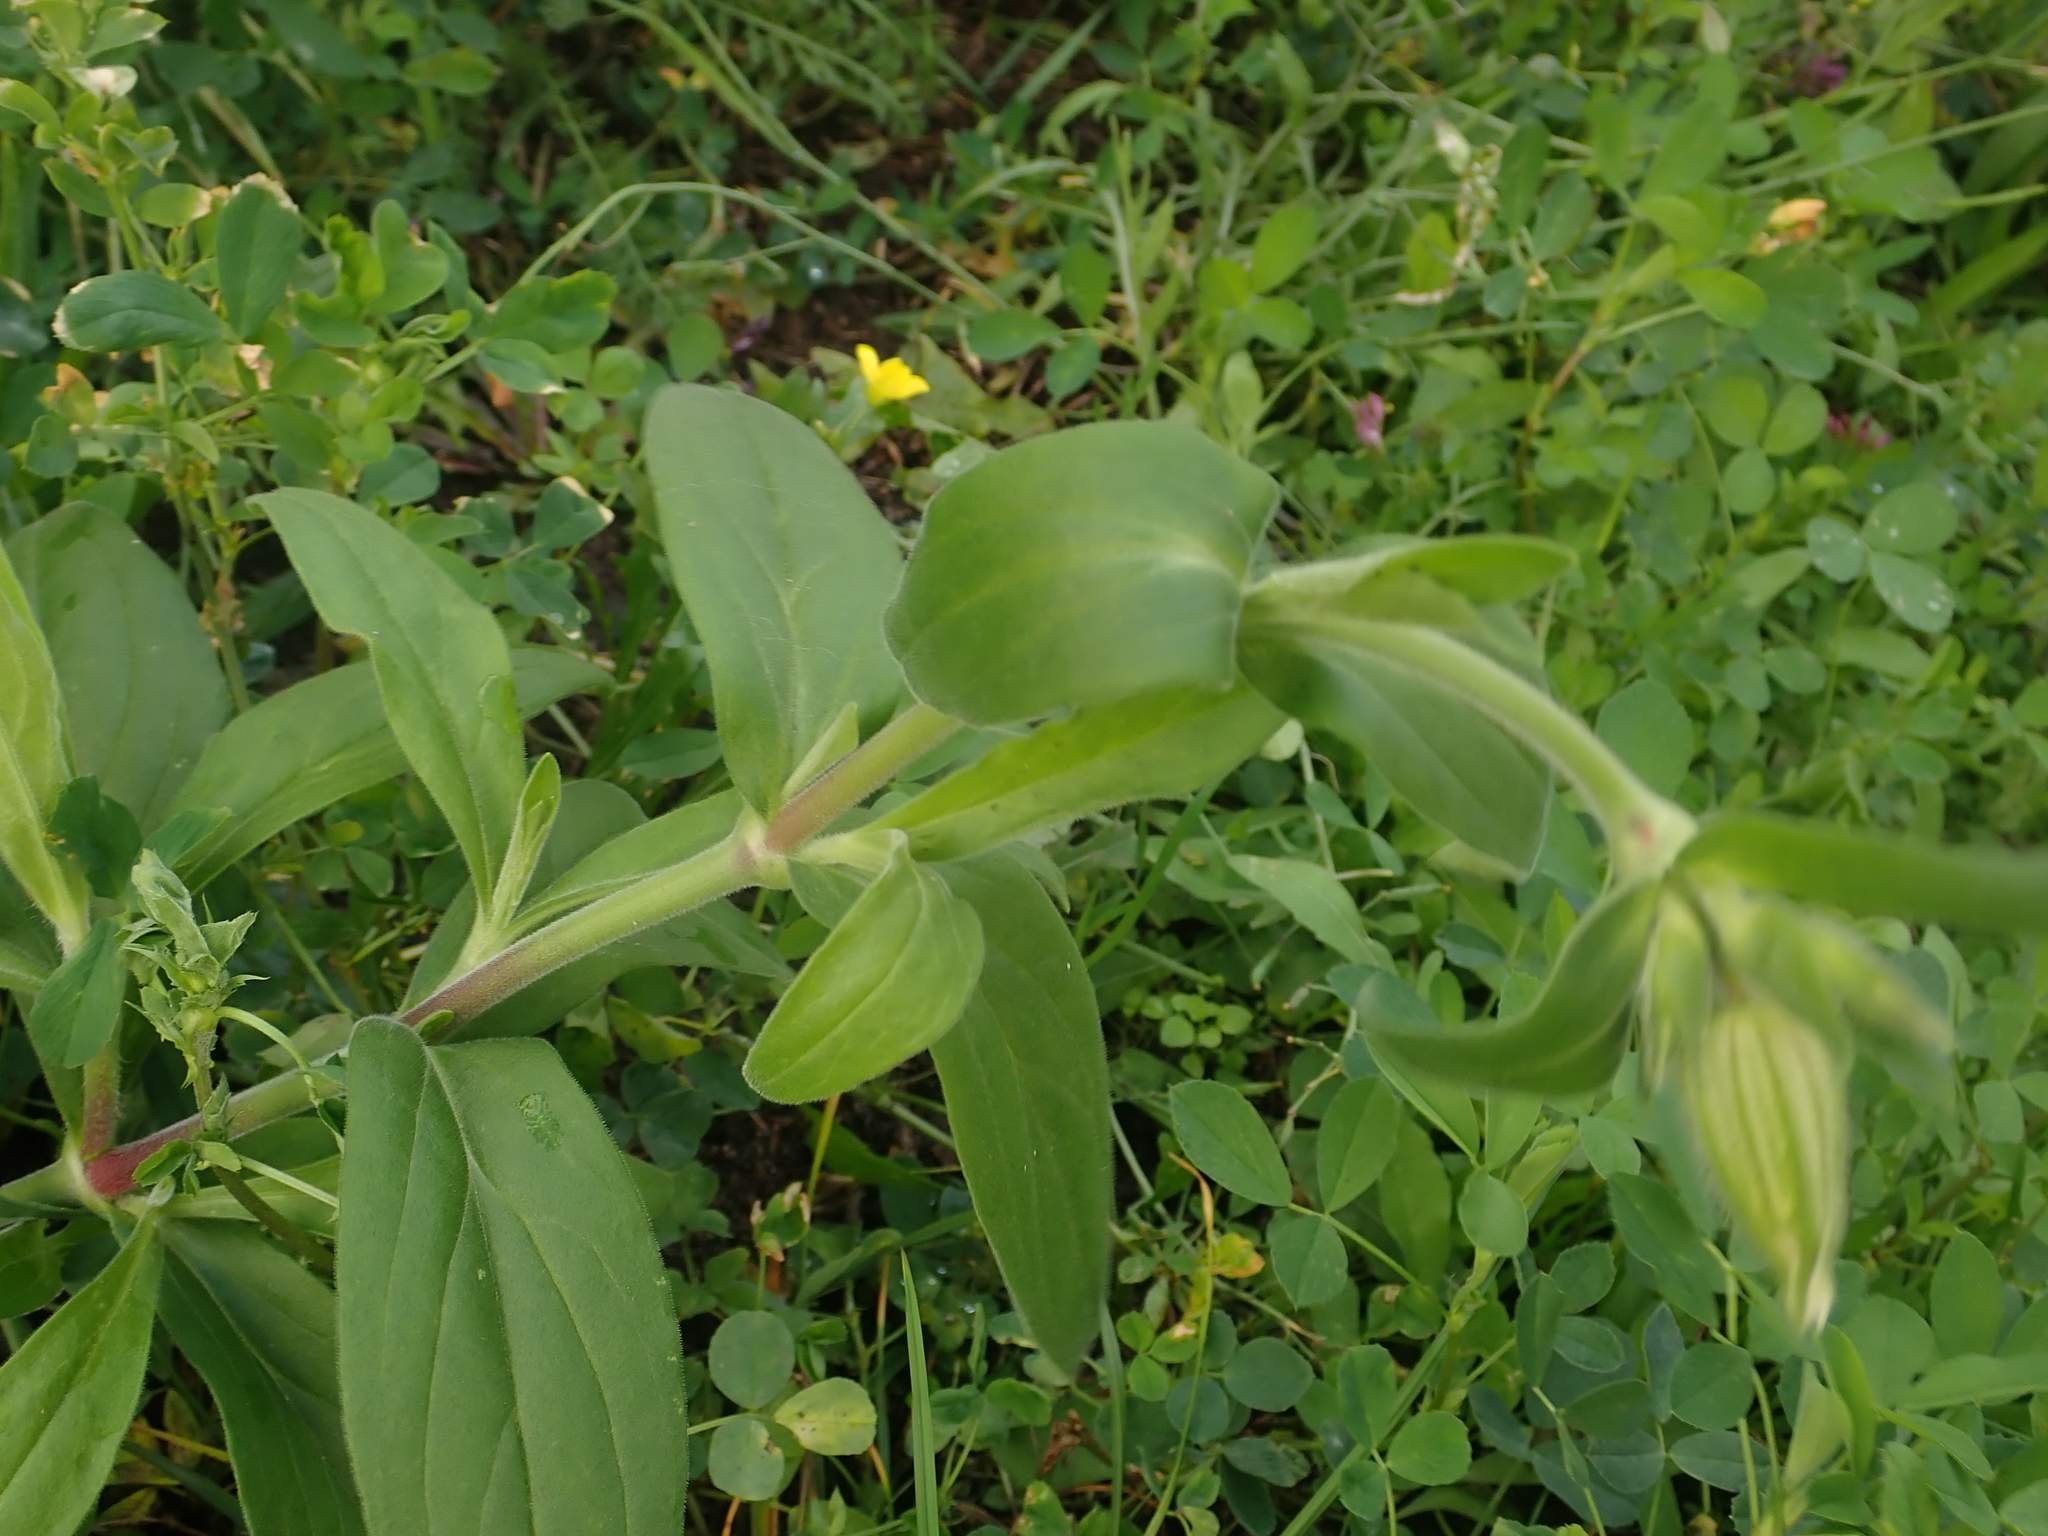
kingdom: Plantae
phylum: Tracheophyta
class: Magnoliopsida
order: Caryophyllales
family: Caryophyllaceae
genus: Silene
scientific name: Silene latifolia
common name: White campion
